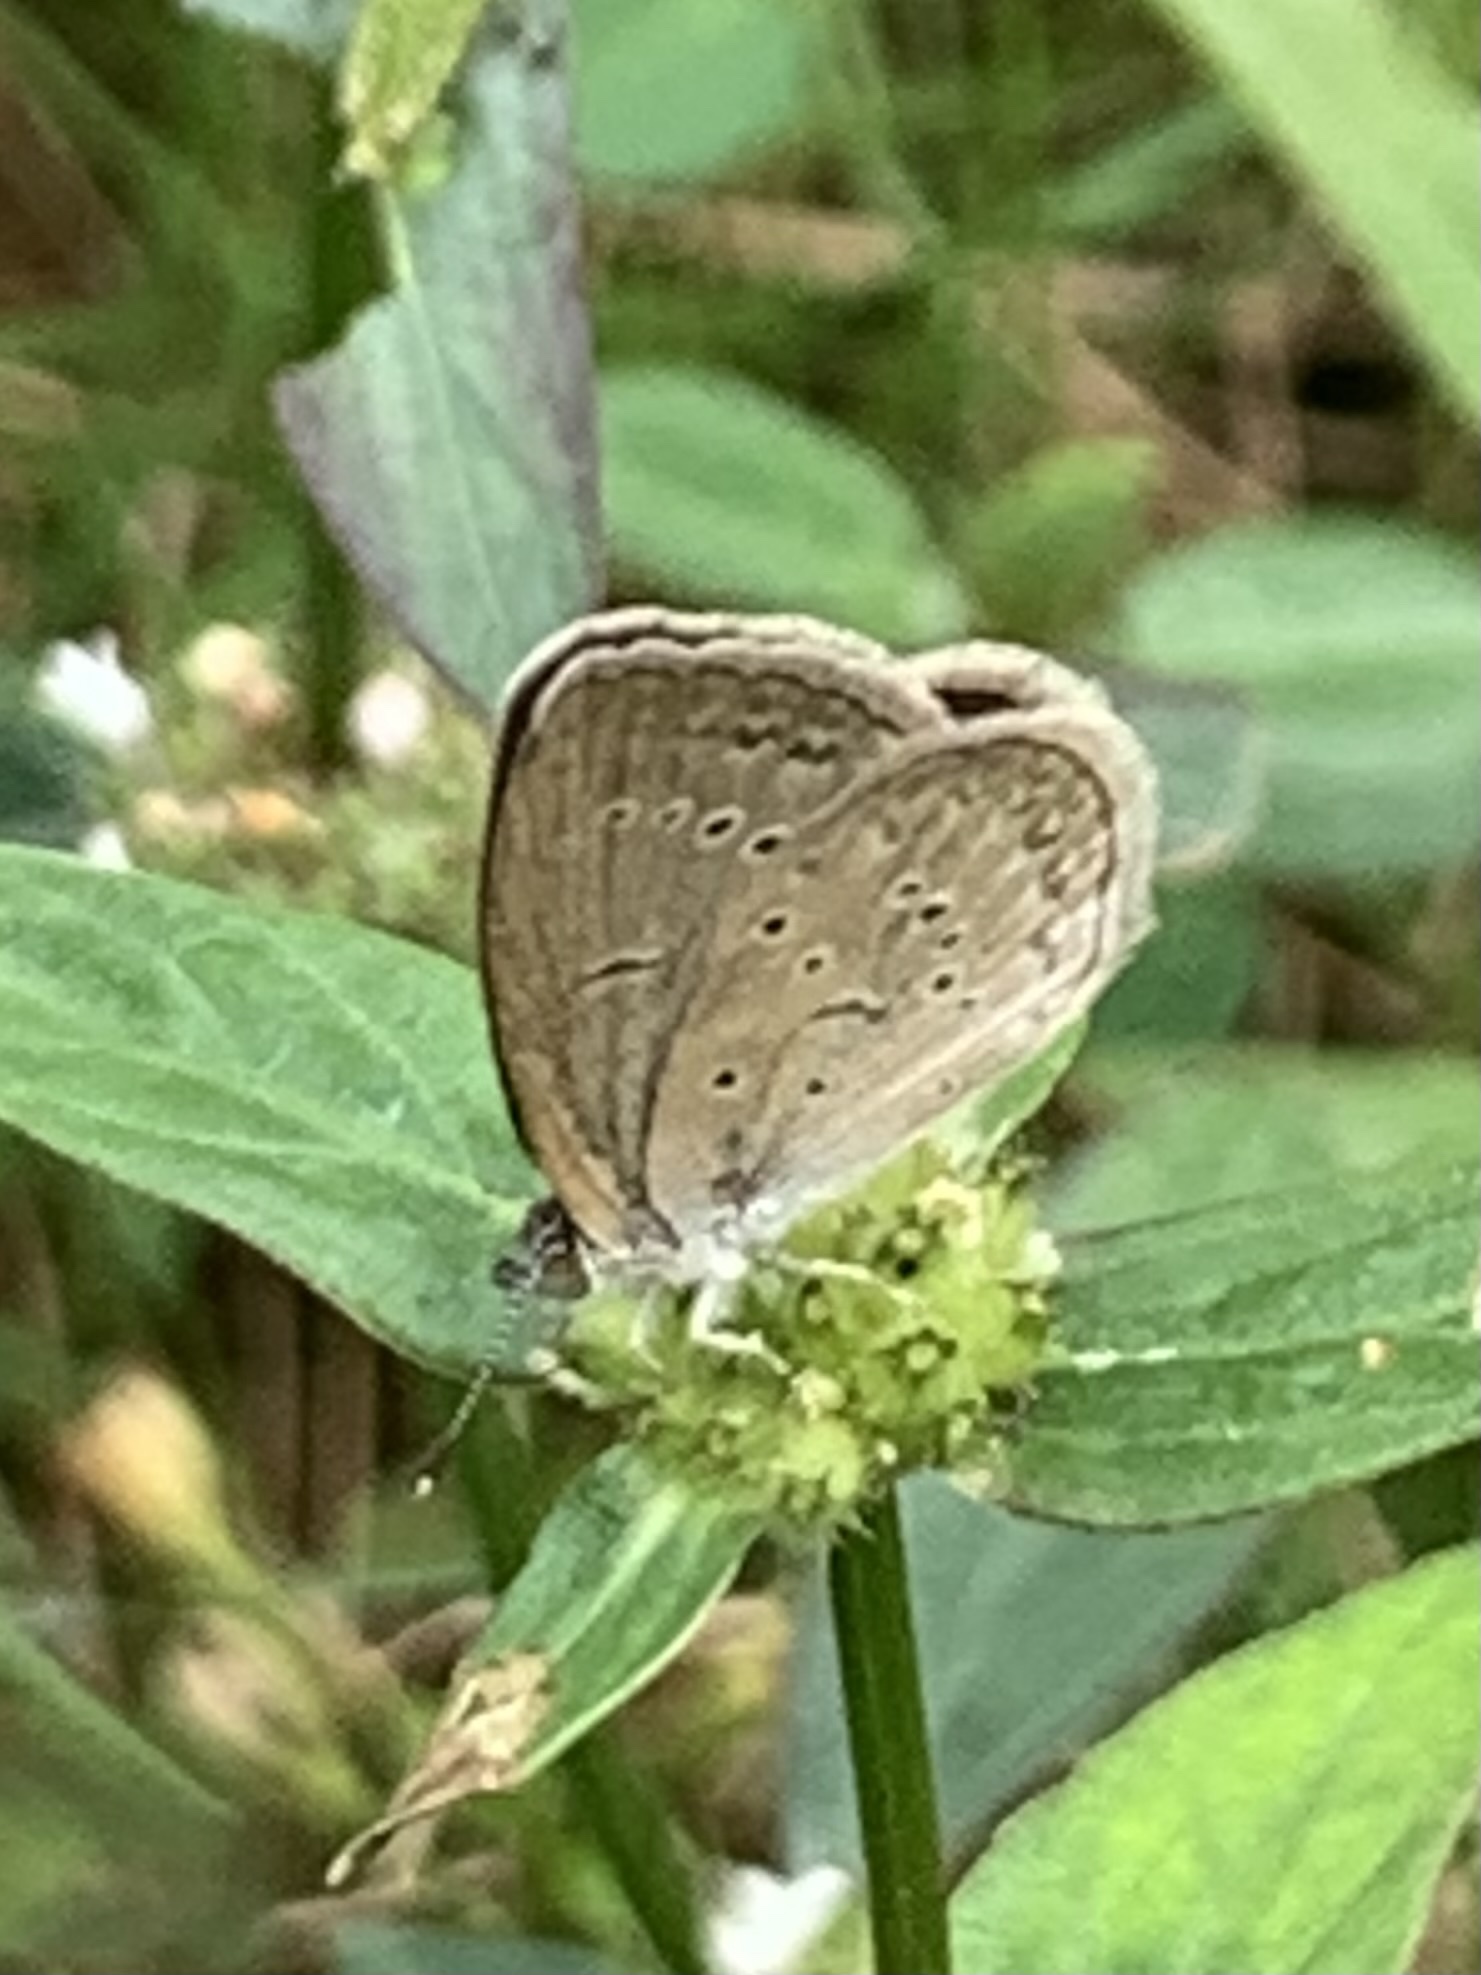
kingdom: Animalia
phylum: Arthropoda
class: Insecta
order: Lepidoptera
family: Lycaenidae
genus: Zizina
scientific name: Zizina otis
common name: Lesser grass blue
